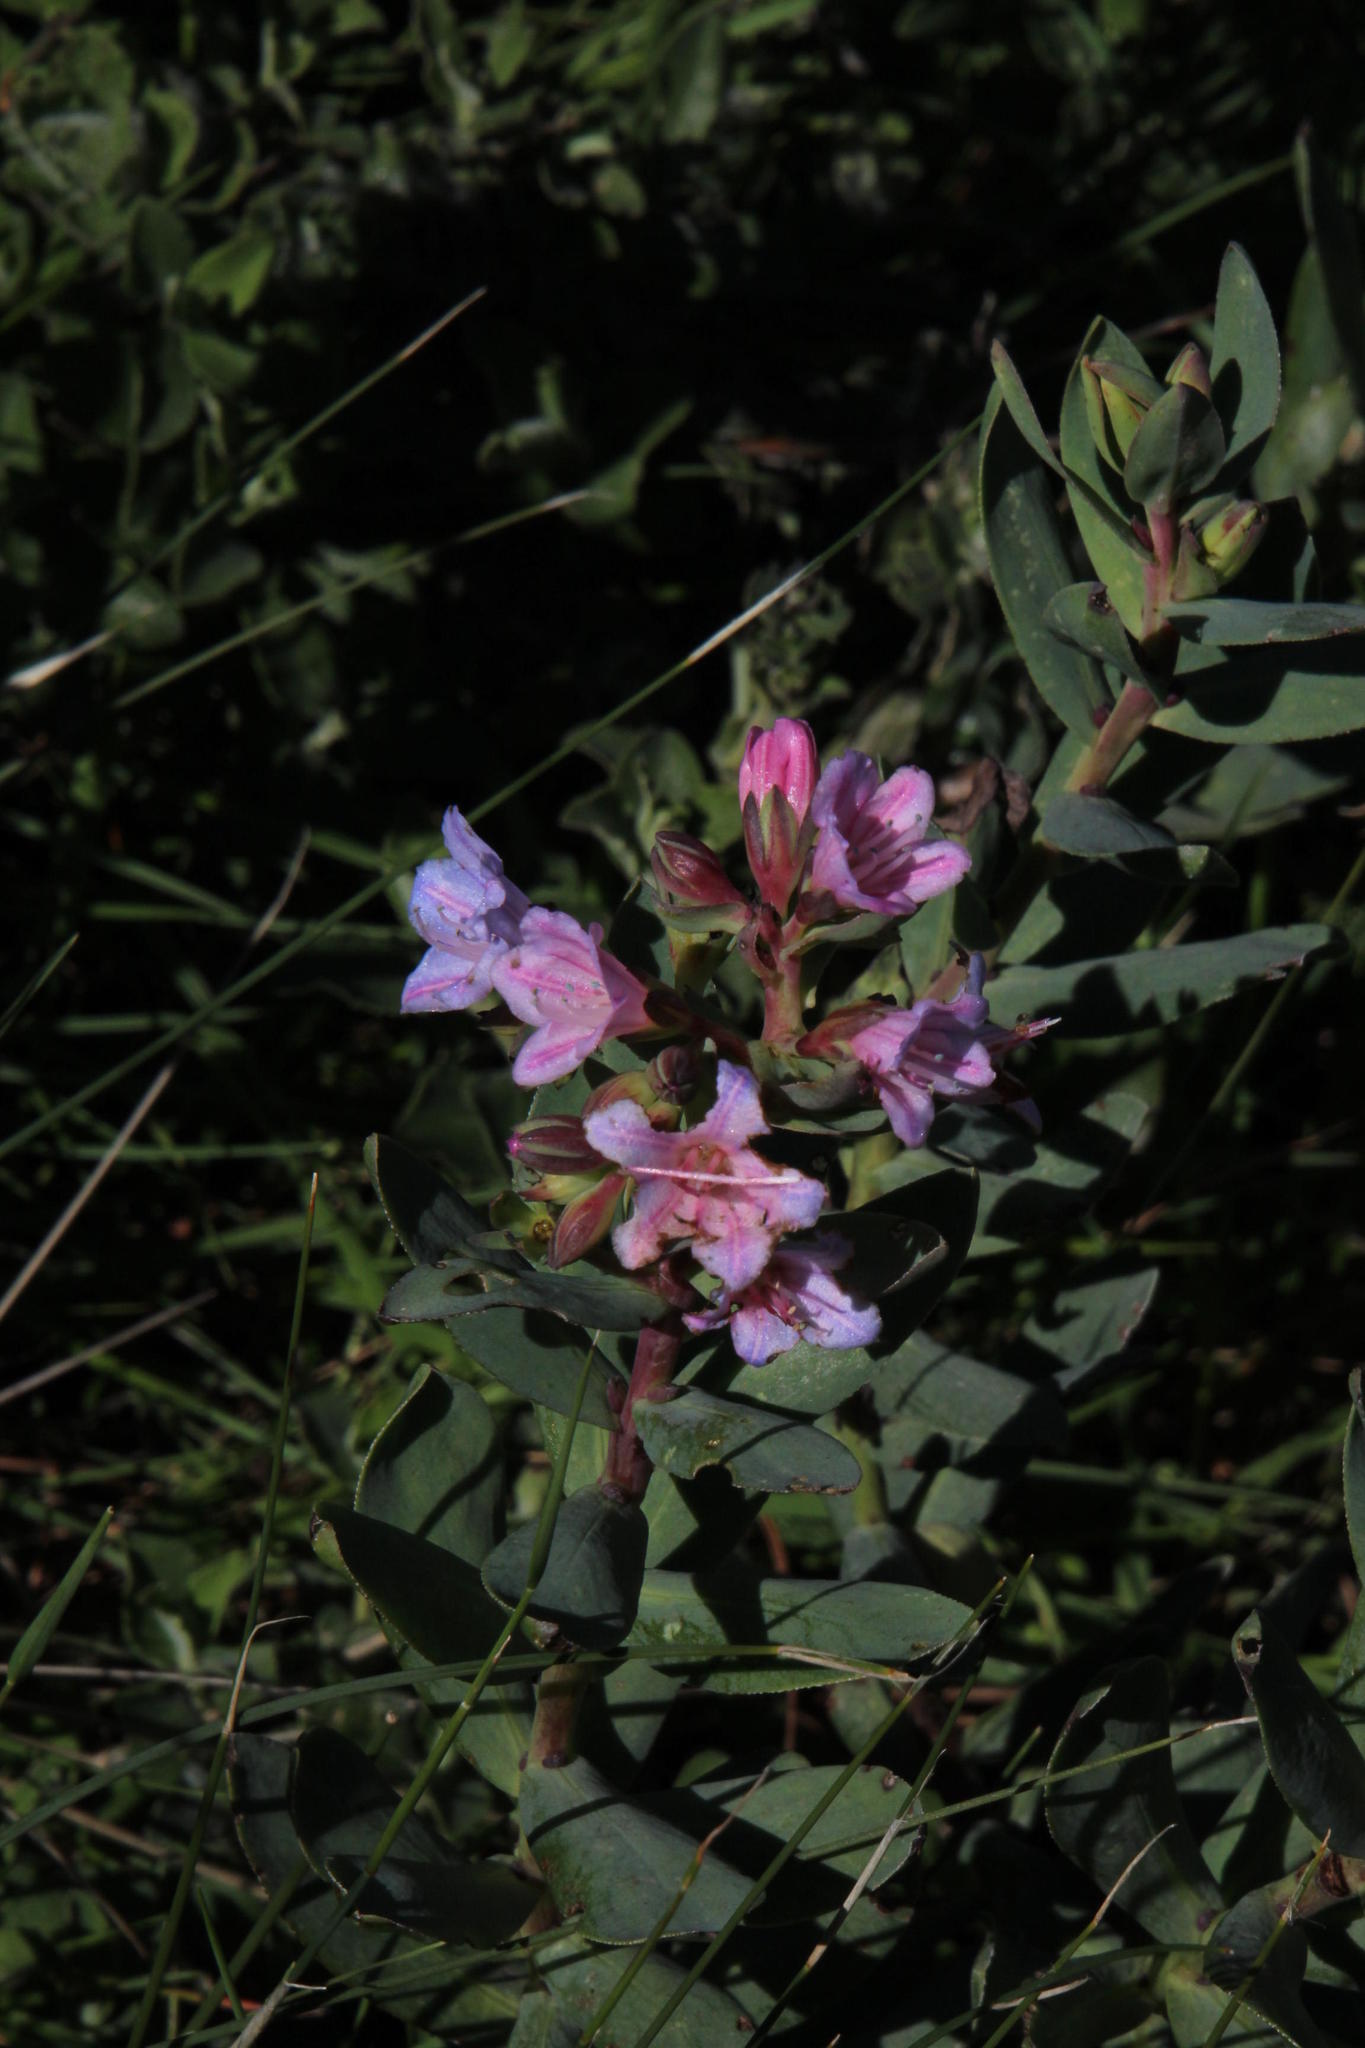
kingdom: Plantae
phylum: Tracheophyta
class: Magnoliopsida
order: Boraginales
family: Boraginaceae
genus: Lobostemon
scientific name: Lobostemon glaucophyllus
